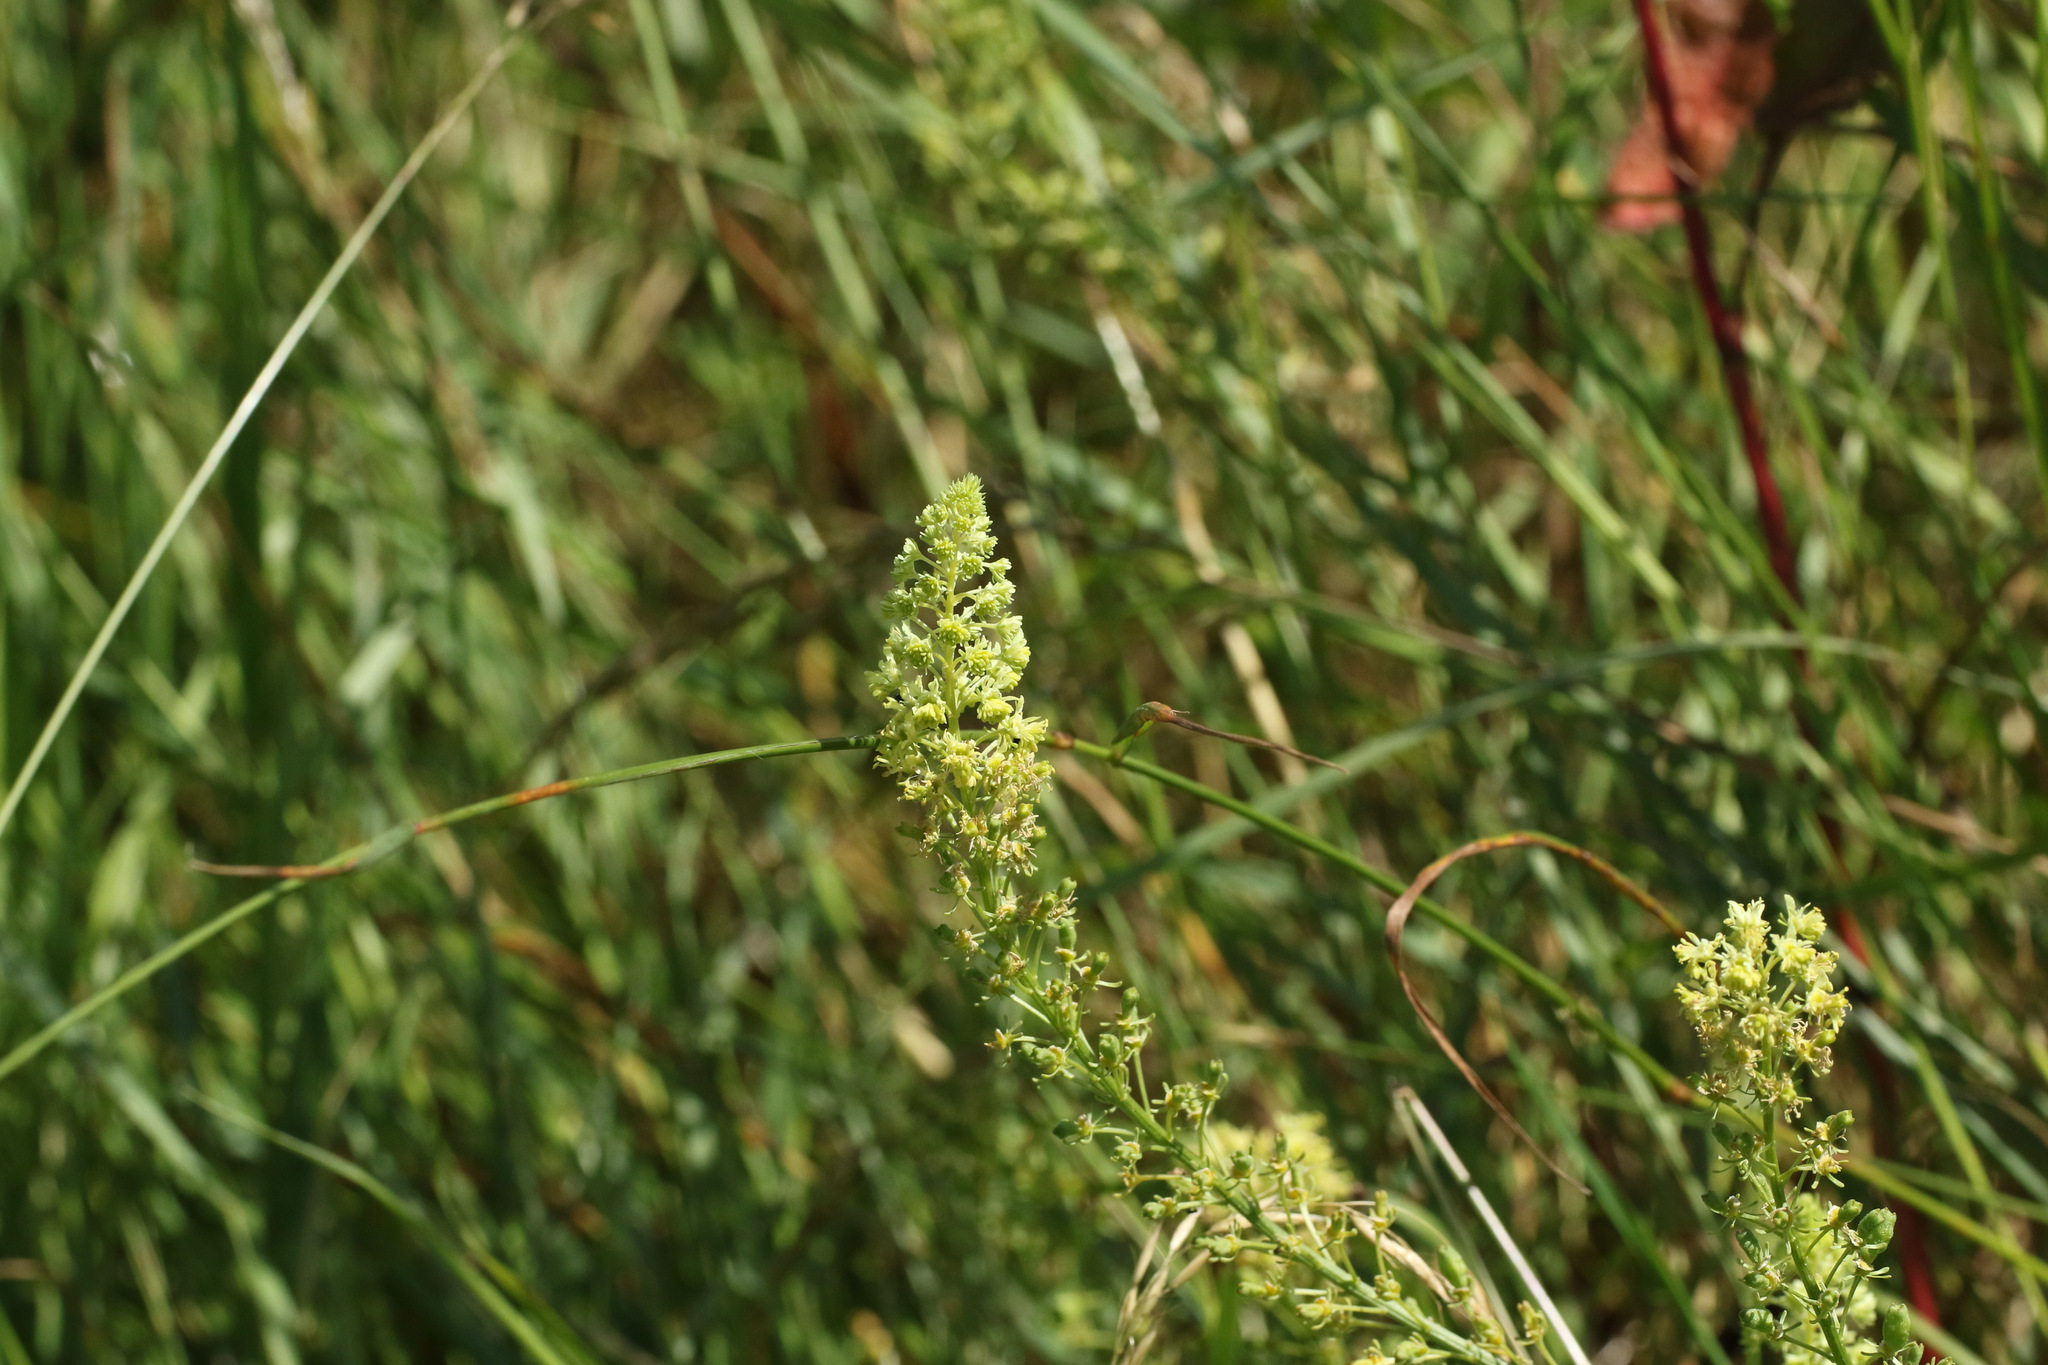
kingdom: Plantae
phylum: Tracheophyta
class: Magnoliopsida
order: Brassicales
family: Resedaceae
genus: Reseda
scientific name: Reseda lutea
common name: Wild mignonette
